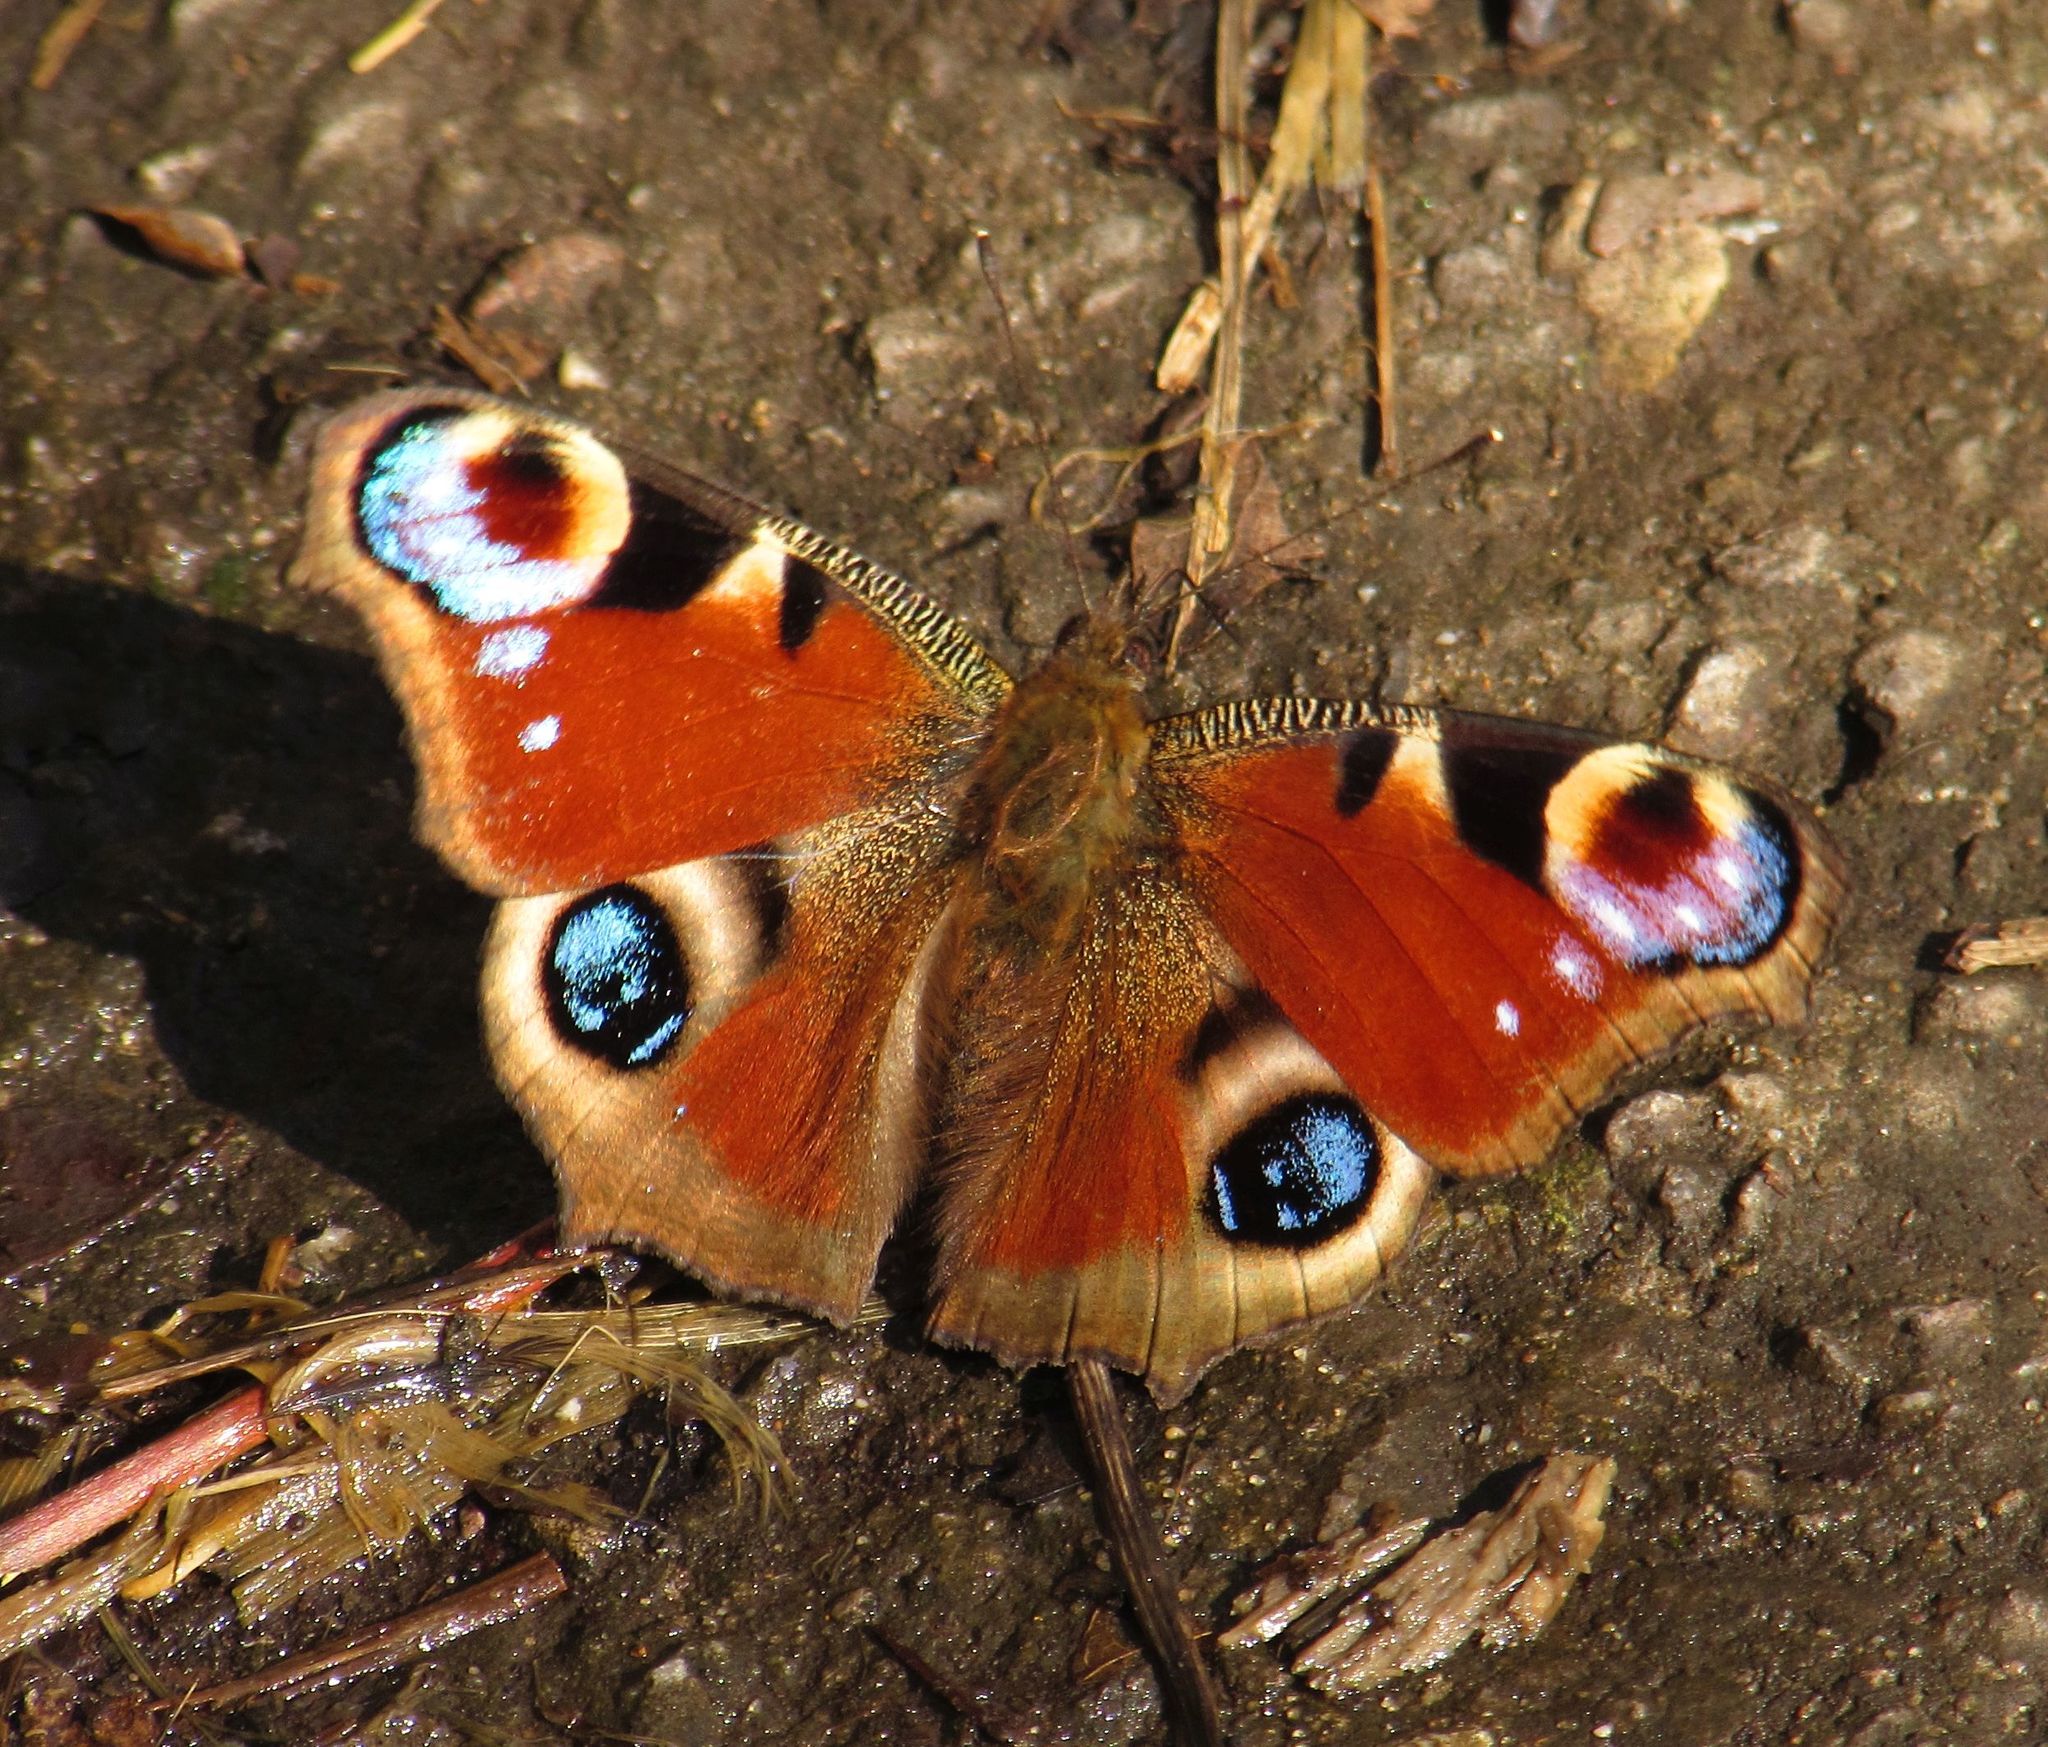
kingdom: Animalia
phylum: Arthropoda
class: Insecta
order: Lepidoptera
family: Nymphalidae
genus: Aglais
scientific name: Aglais io
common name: Peacock
